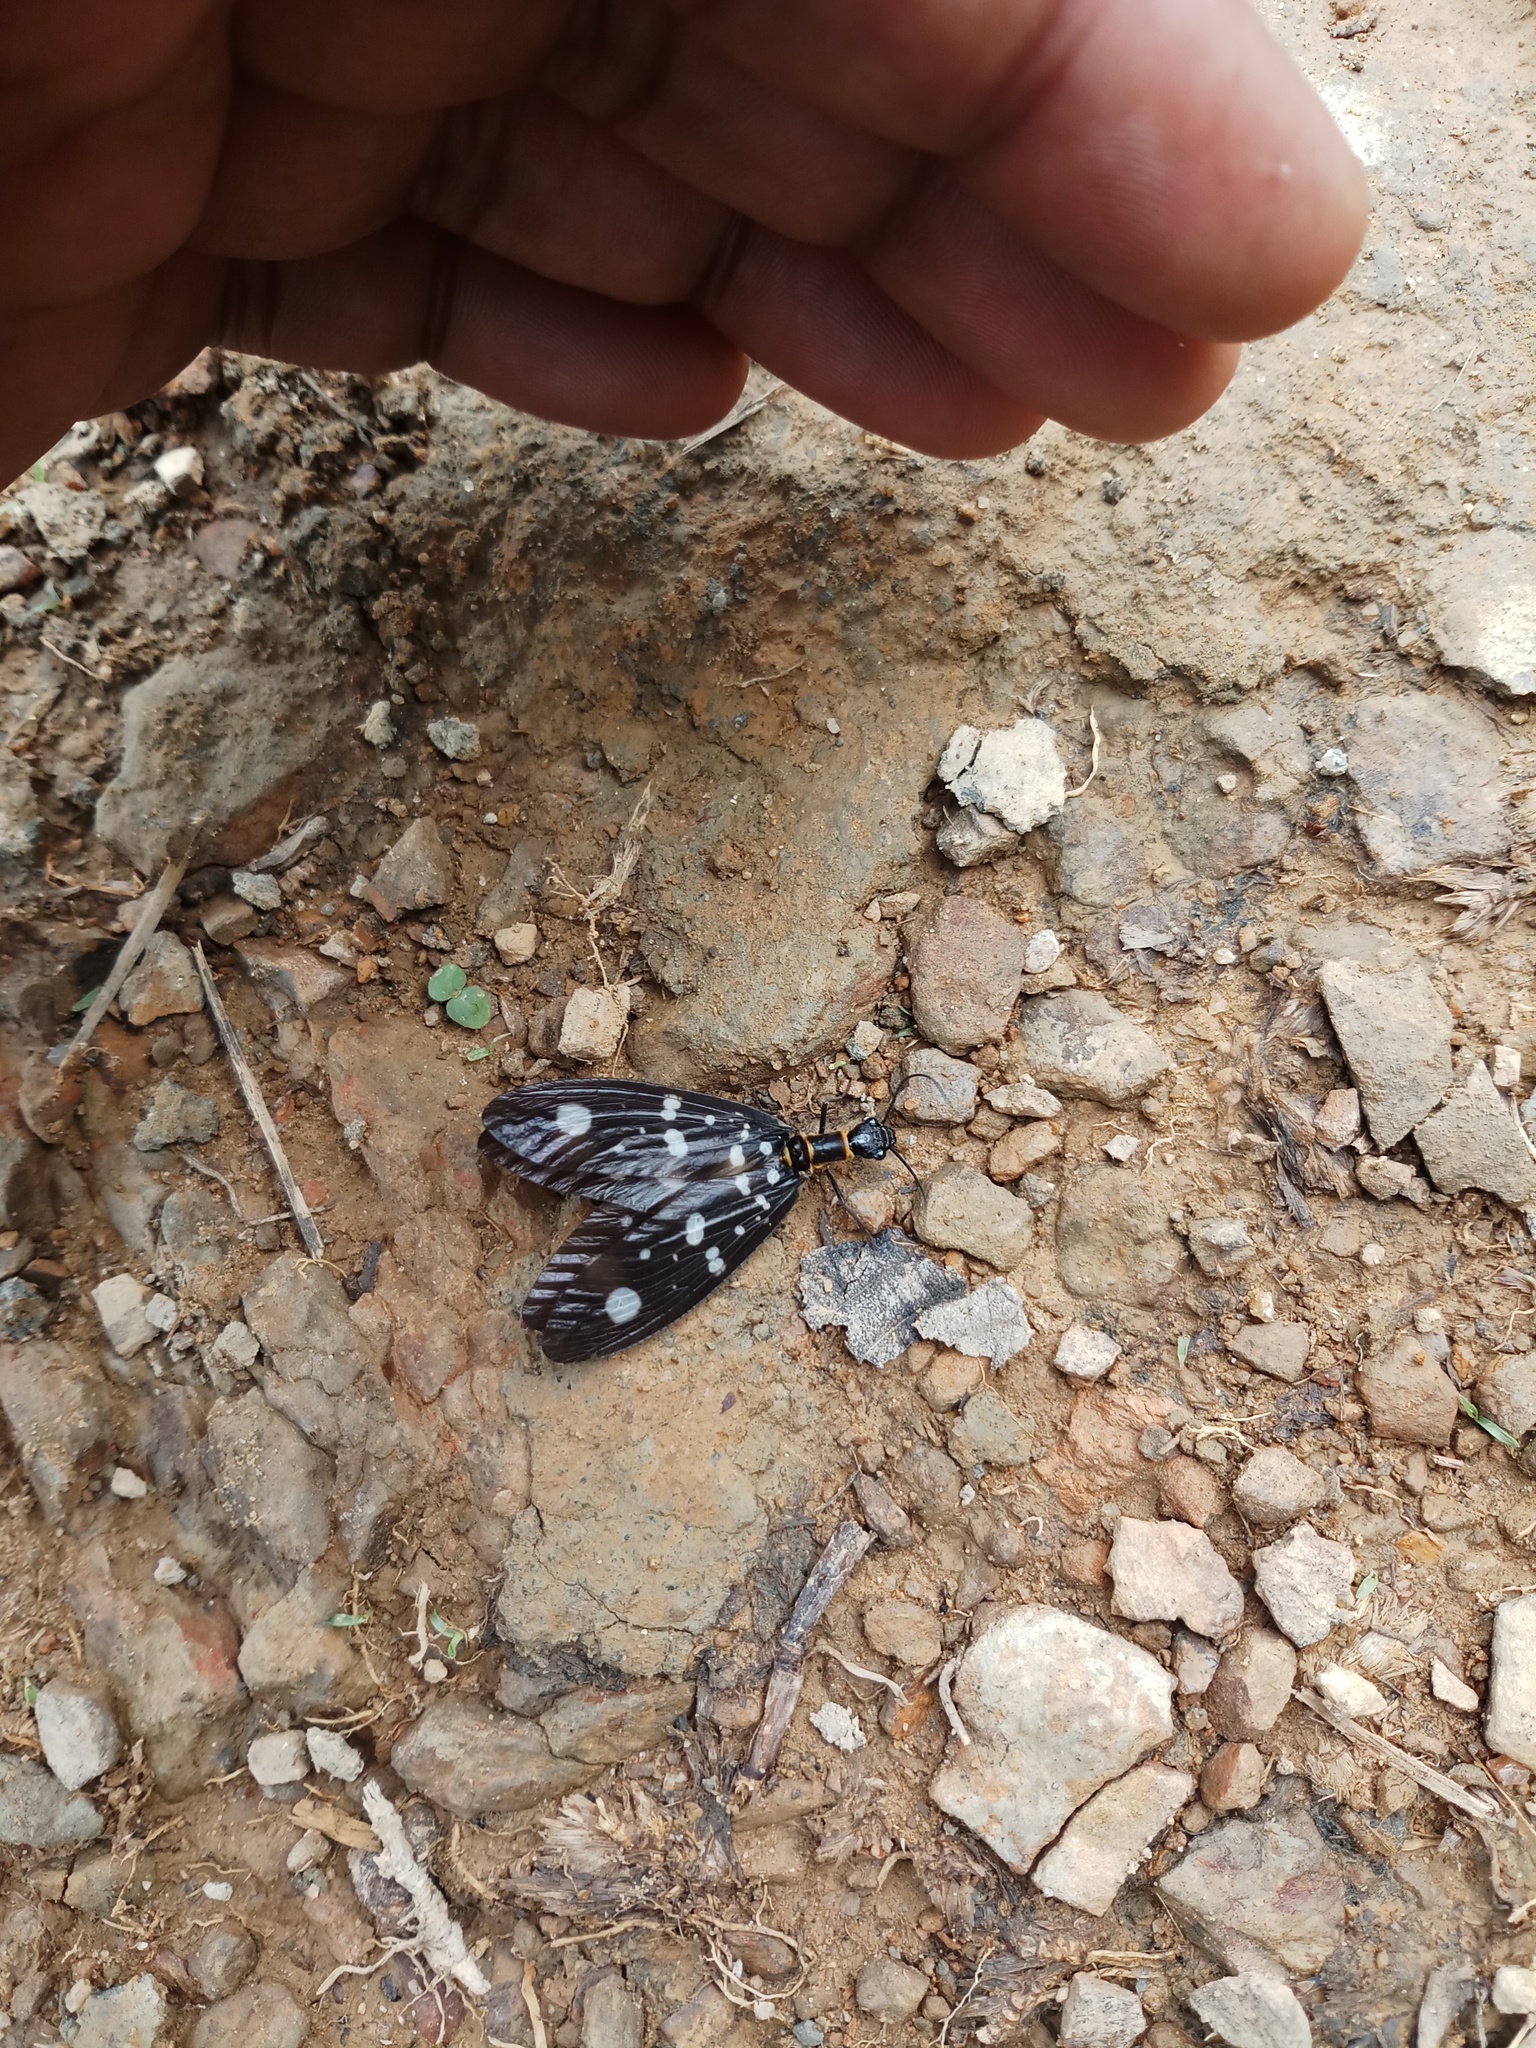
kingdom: Animalia
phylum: Arthropoda
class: Insecta
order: Megaloptera
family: Corydalidae
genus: Protohermes
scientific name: Protohermes
